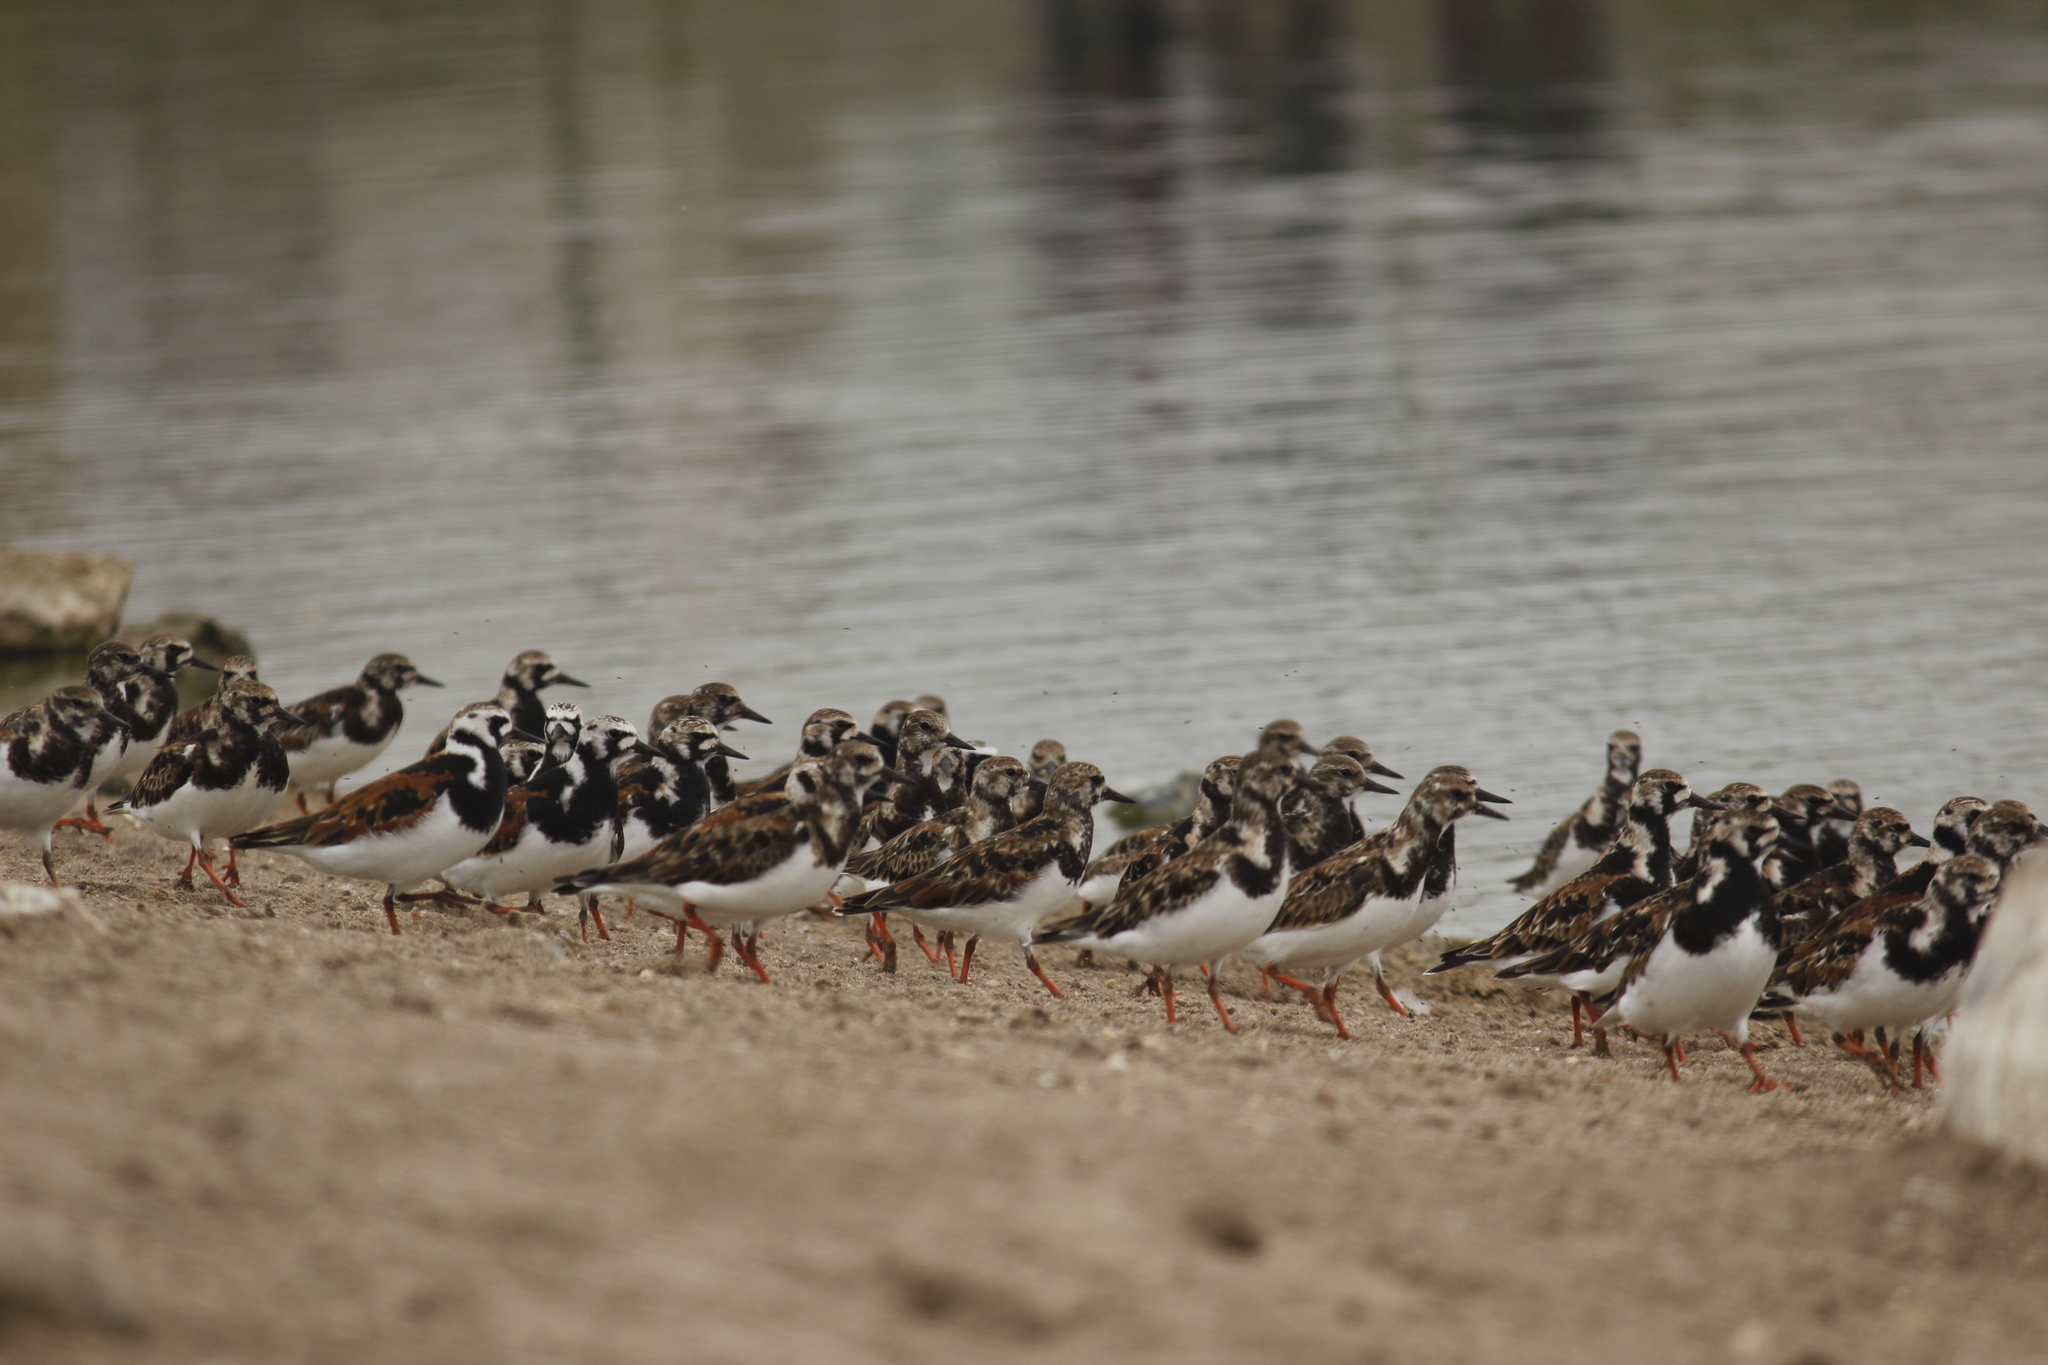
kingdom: Animalia
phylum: Chordata
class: Aves
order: Charadriiformes
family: Scolopacidae
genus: Arenaria
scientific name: Arenaria interpres
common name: Ruddy turnstone
